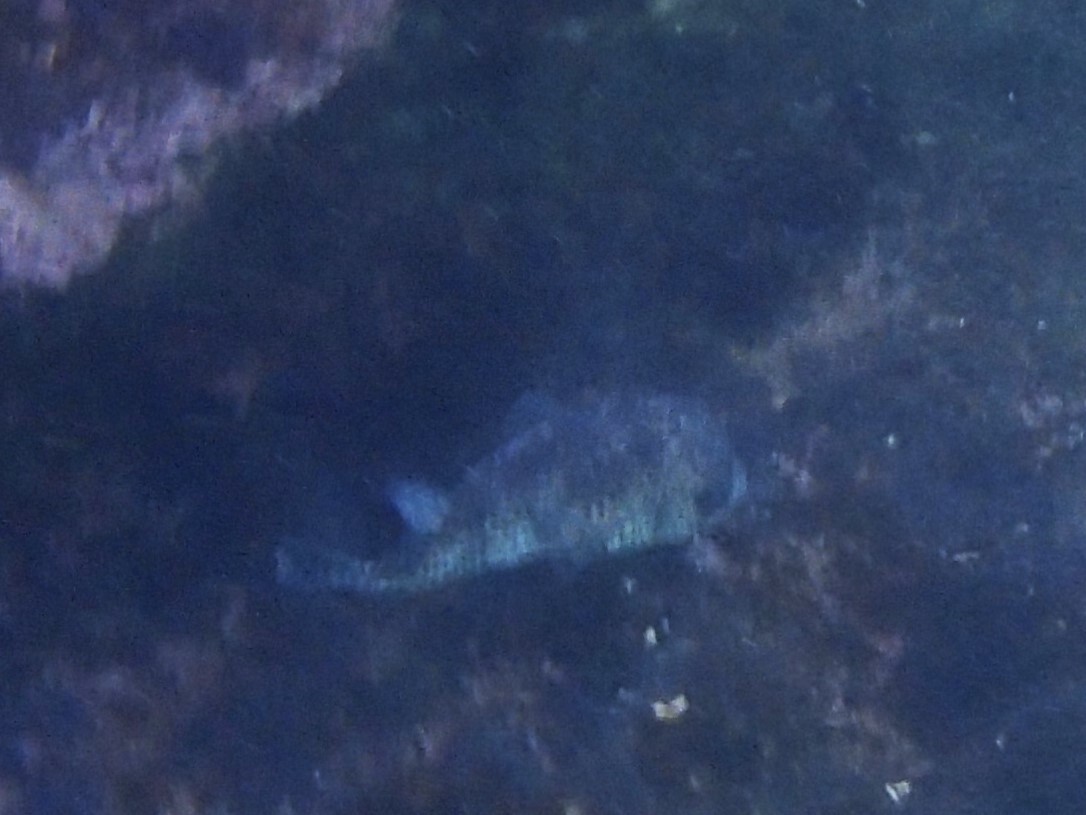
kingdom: Animalia
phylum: Chordata
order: Tetraodontiformes
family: Diodontidae
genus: Diodon
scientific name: Diodon hystrix
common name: Giant porcupinefish
